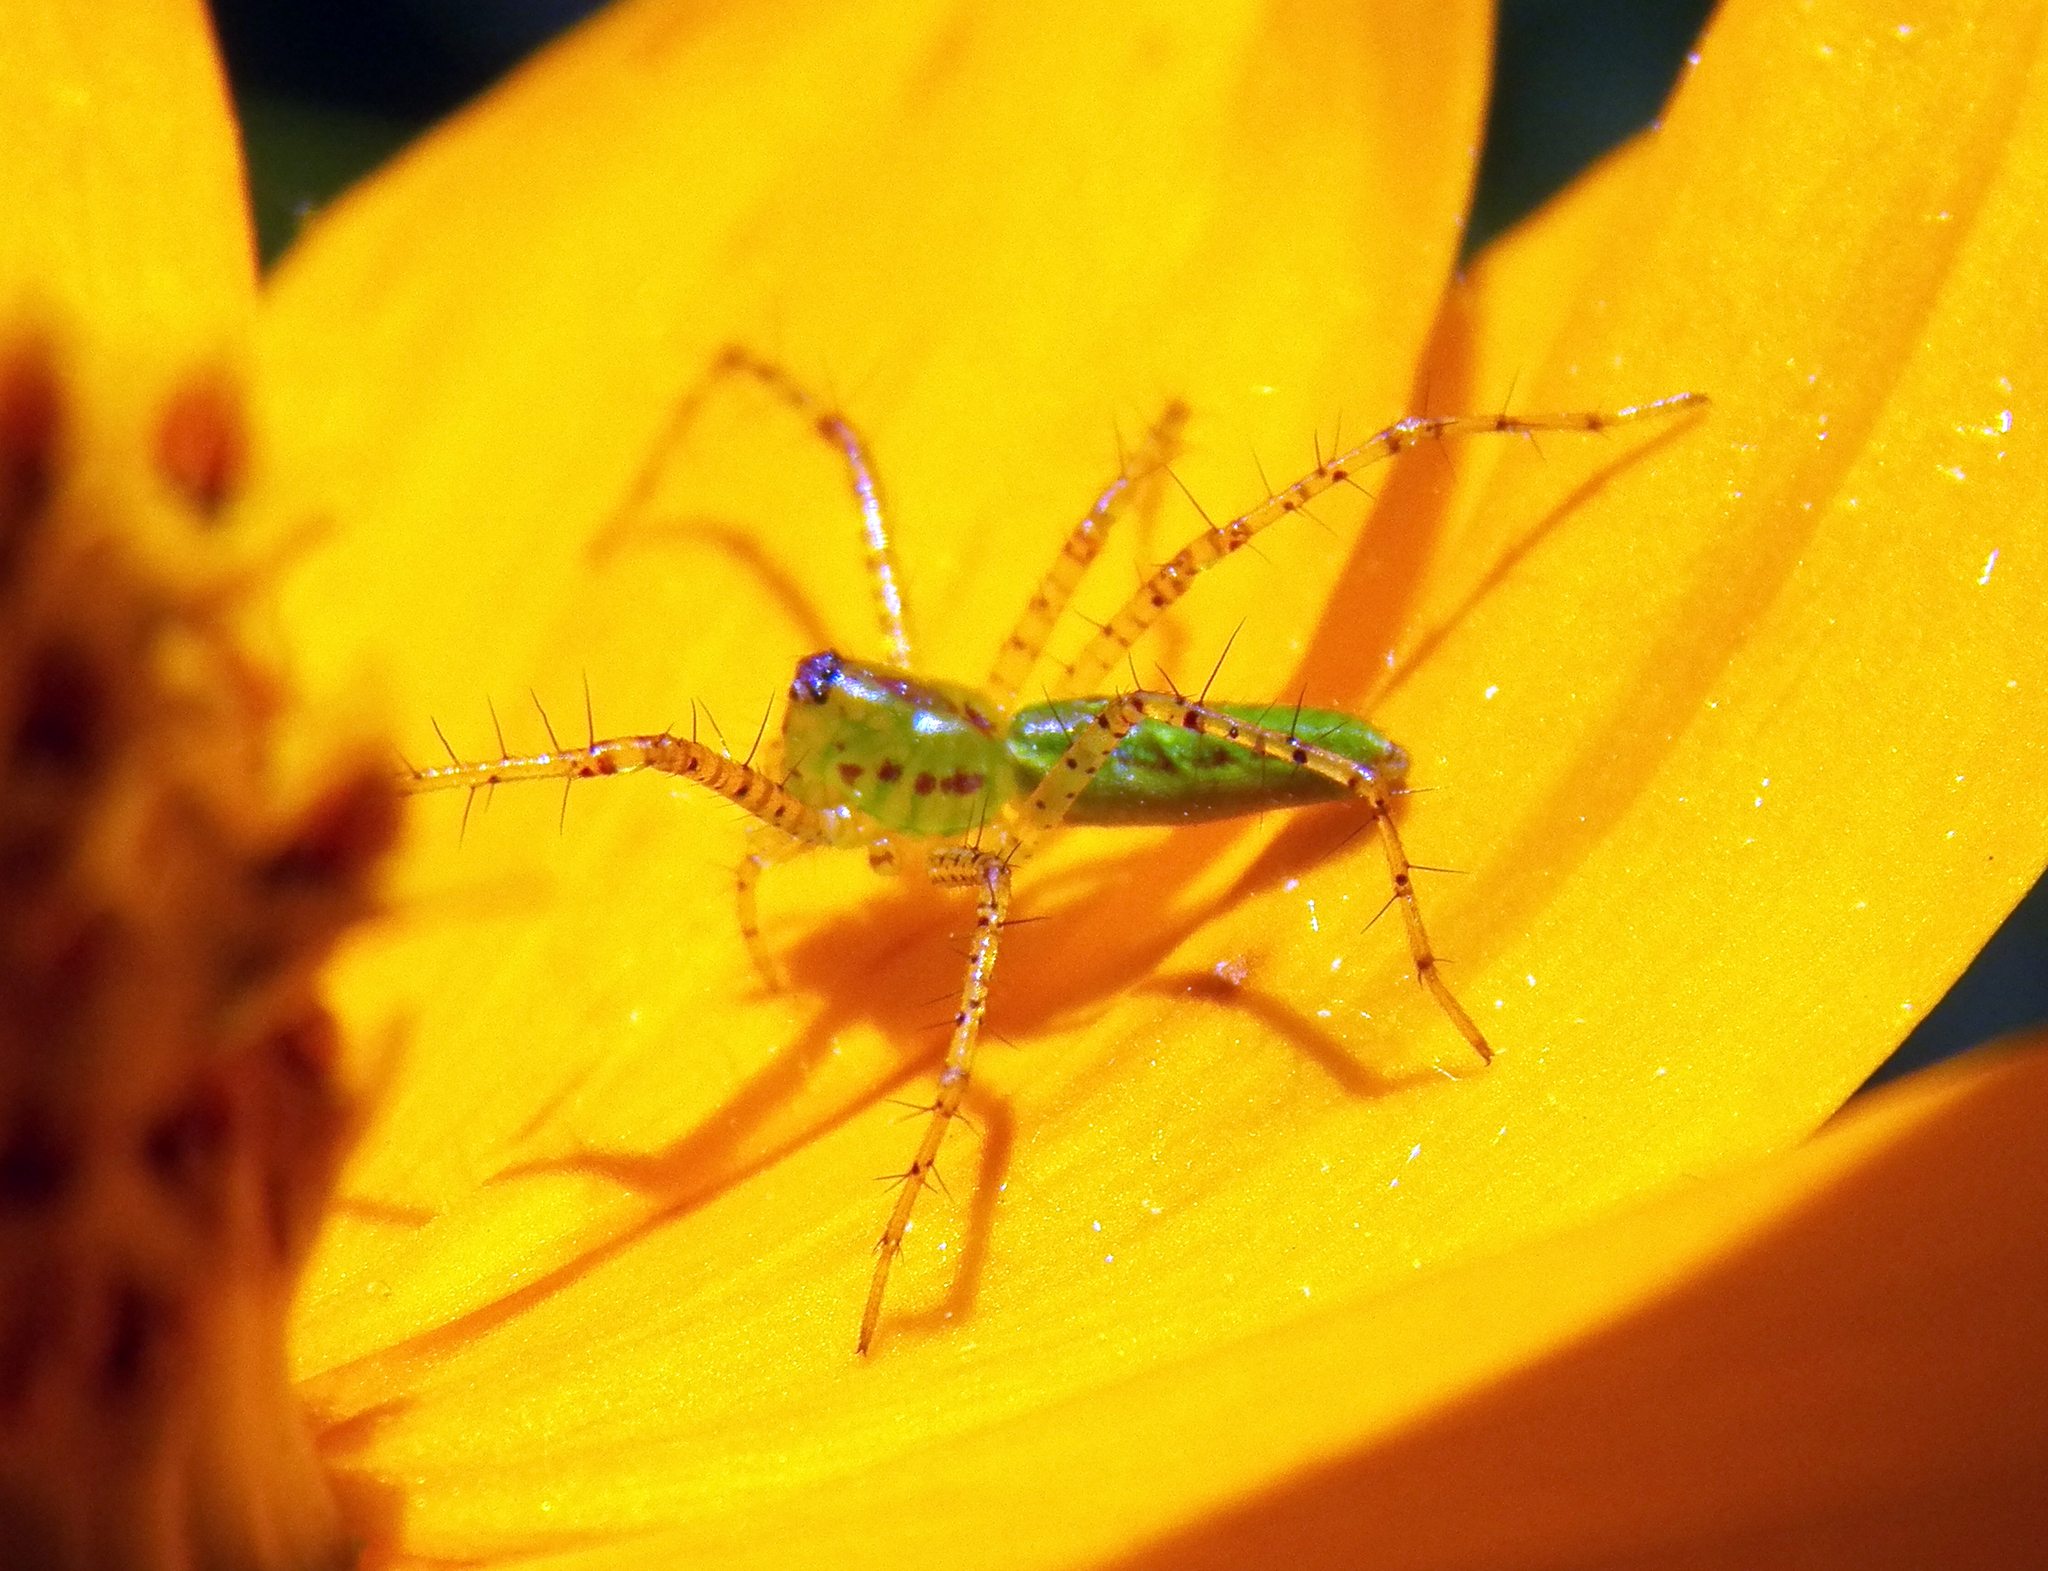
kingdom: Animalia
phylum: Arthropoda
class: Arachnida
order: Araneae
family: Oxyopidae
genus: Peucetia
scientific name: Peucetia viridans
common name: Lynx spiders
